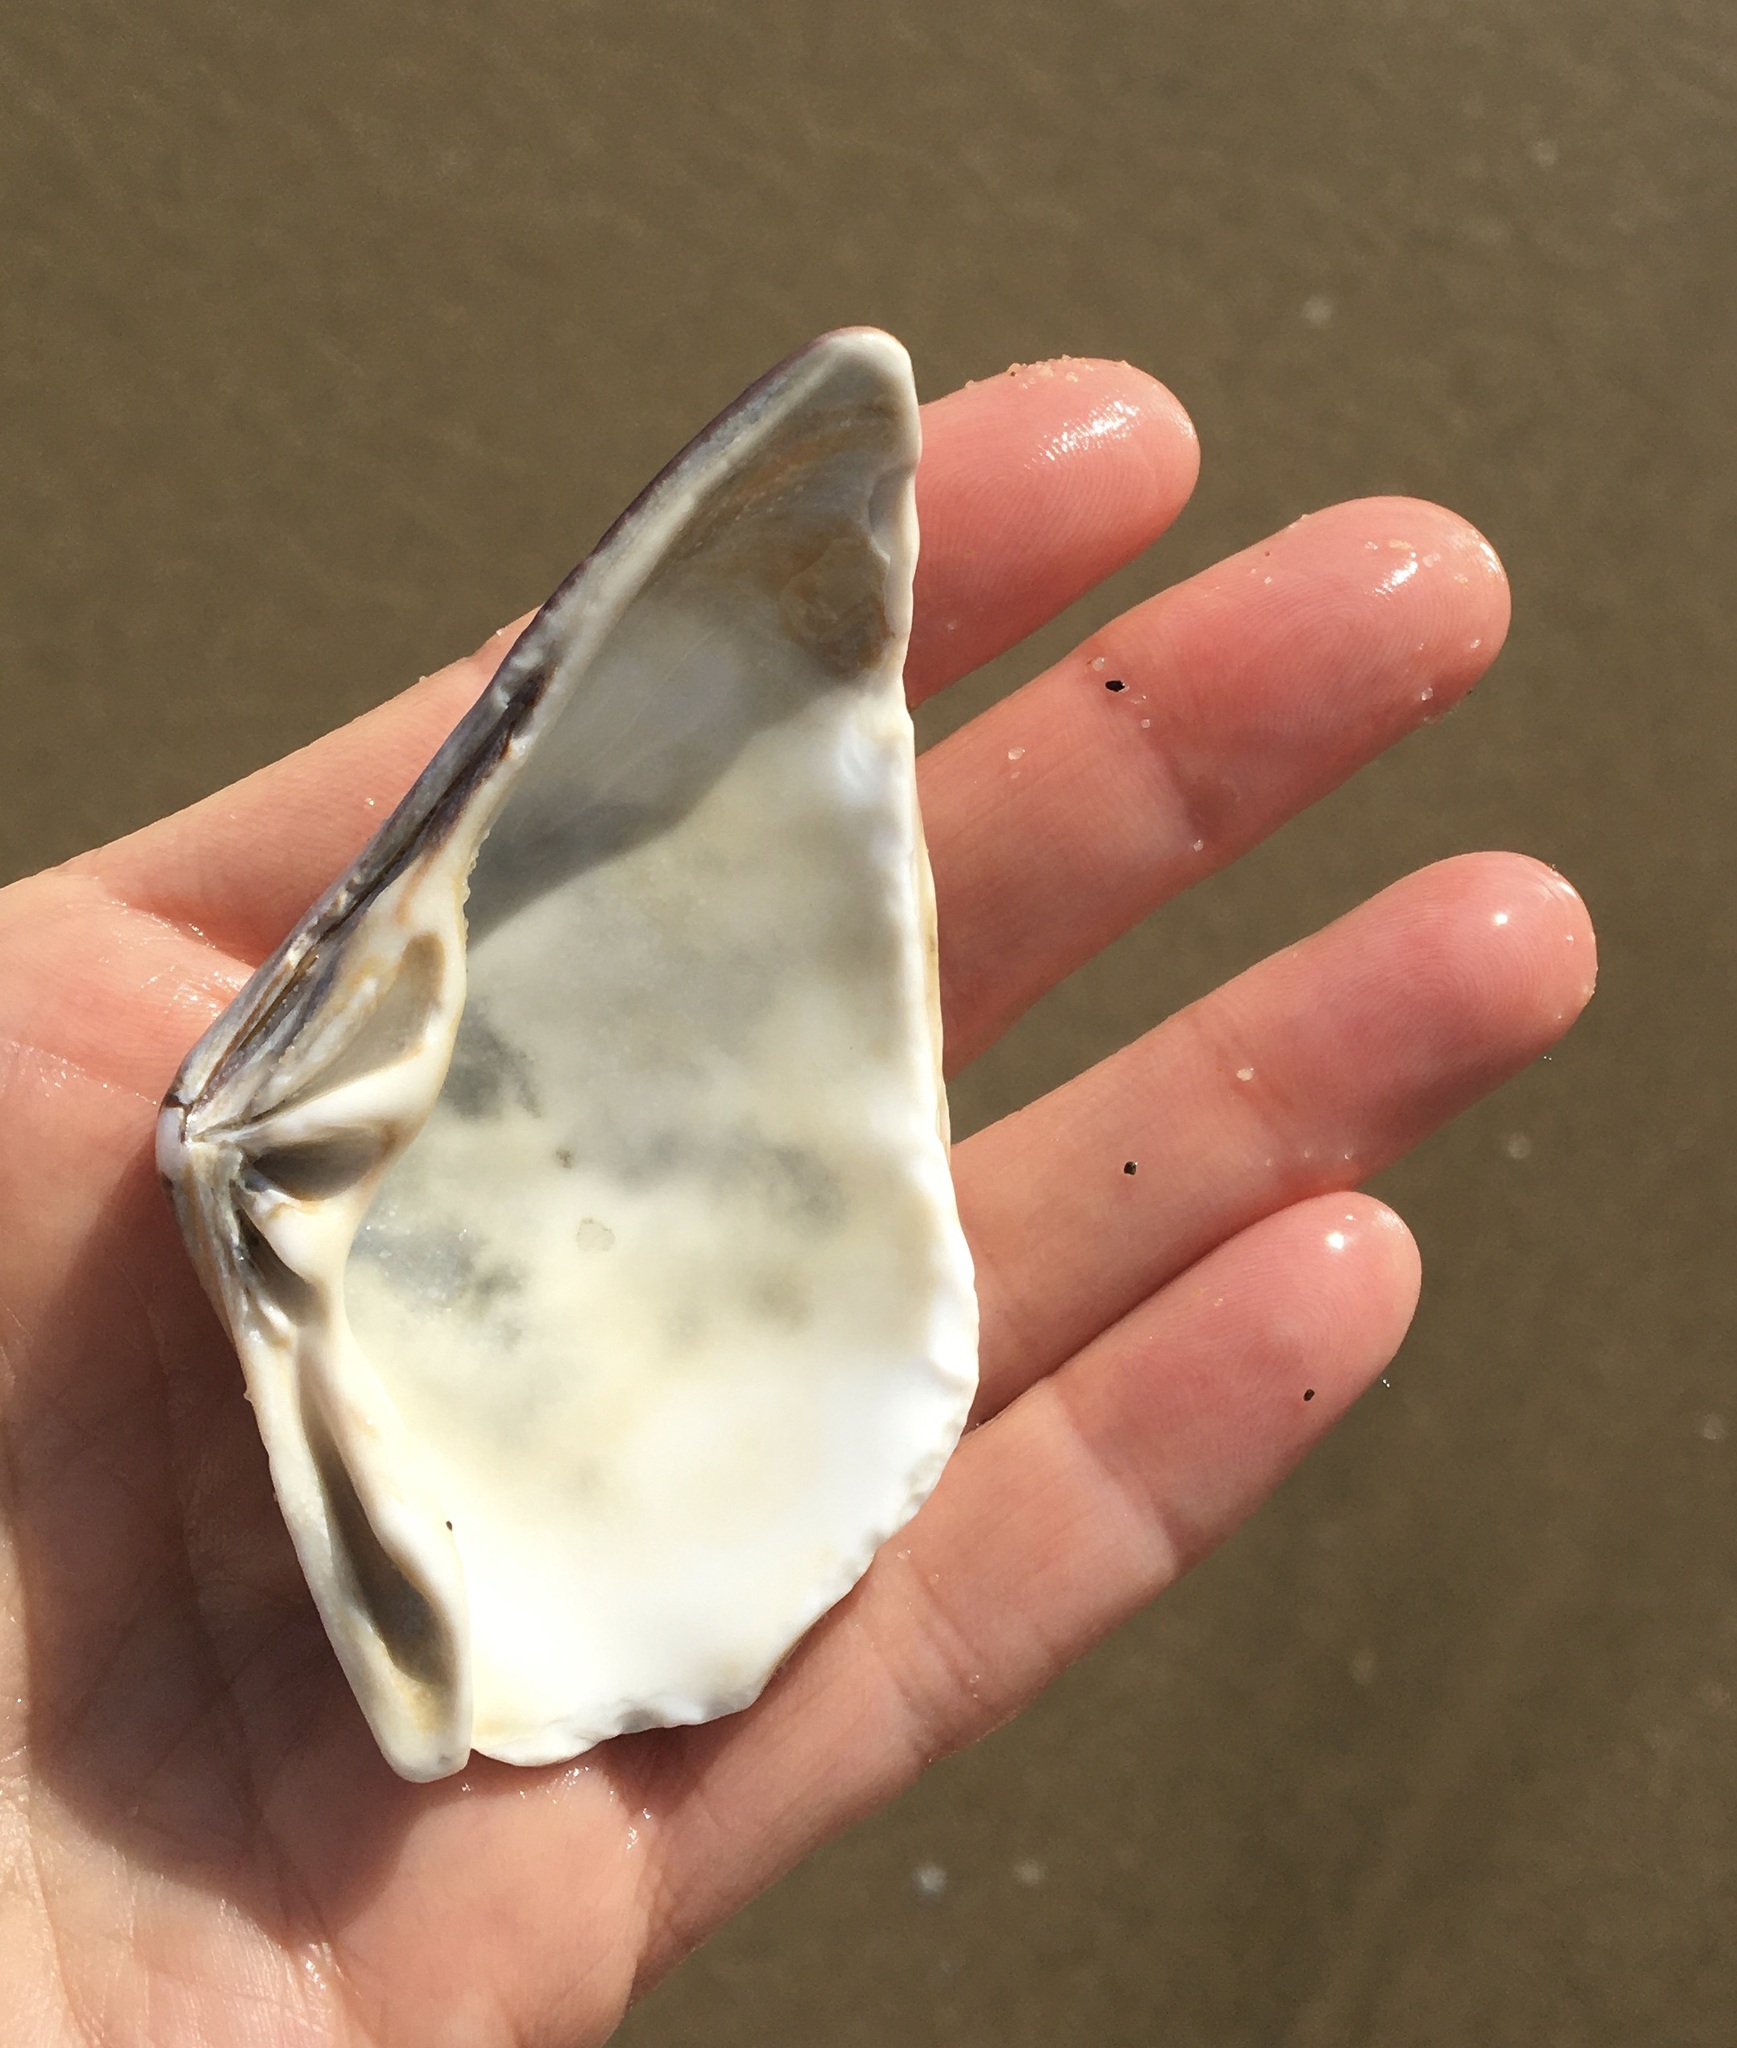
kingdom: Animalia
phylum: Mollusca
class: Bivalvia
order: Venerida
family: Veneridae
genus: Tivela
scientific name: Tivela stultorum
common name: Pismo clam
